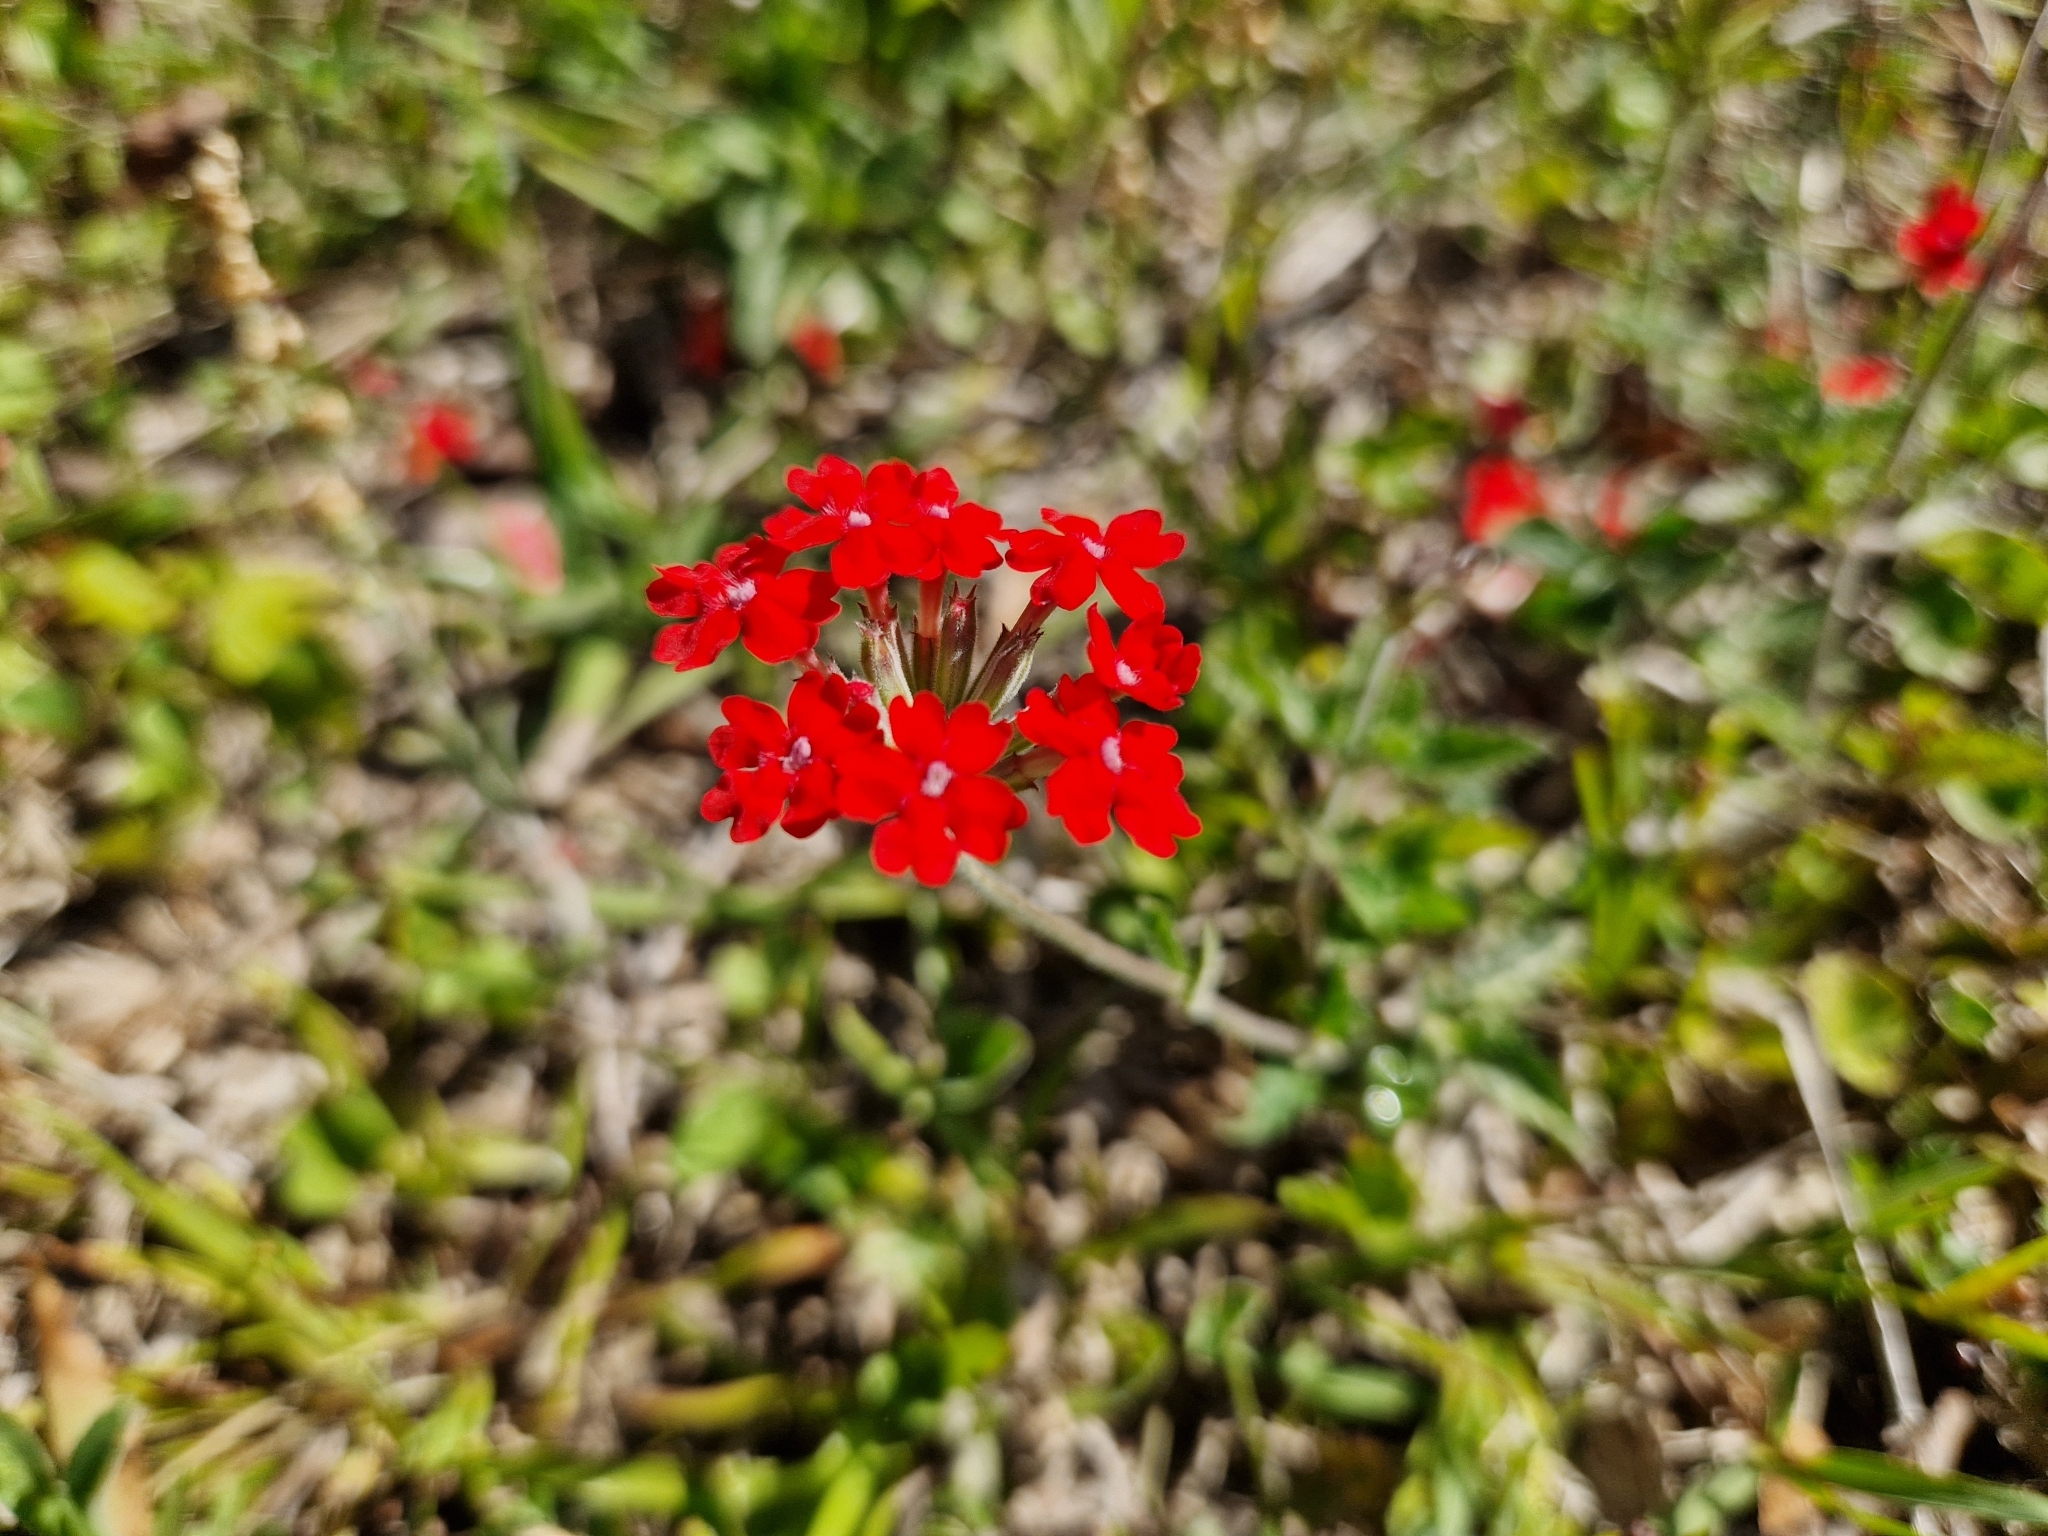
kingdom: Plantae
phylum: Tracheophyta
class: Magnoliopsida
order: Lamiales
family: Verbenaceae
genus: Verbena
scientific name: Verbena tweedieana
